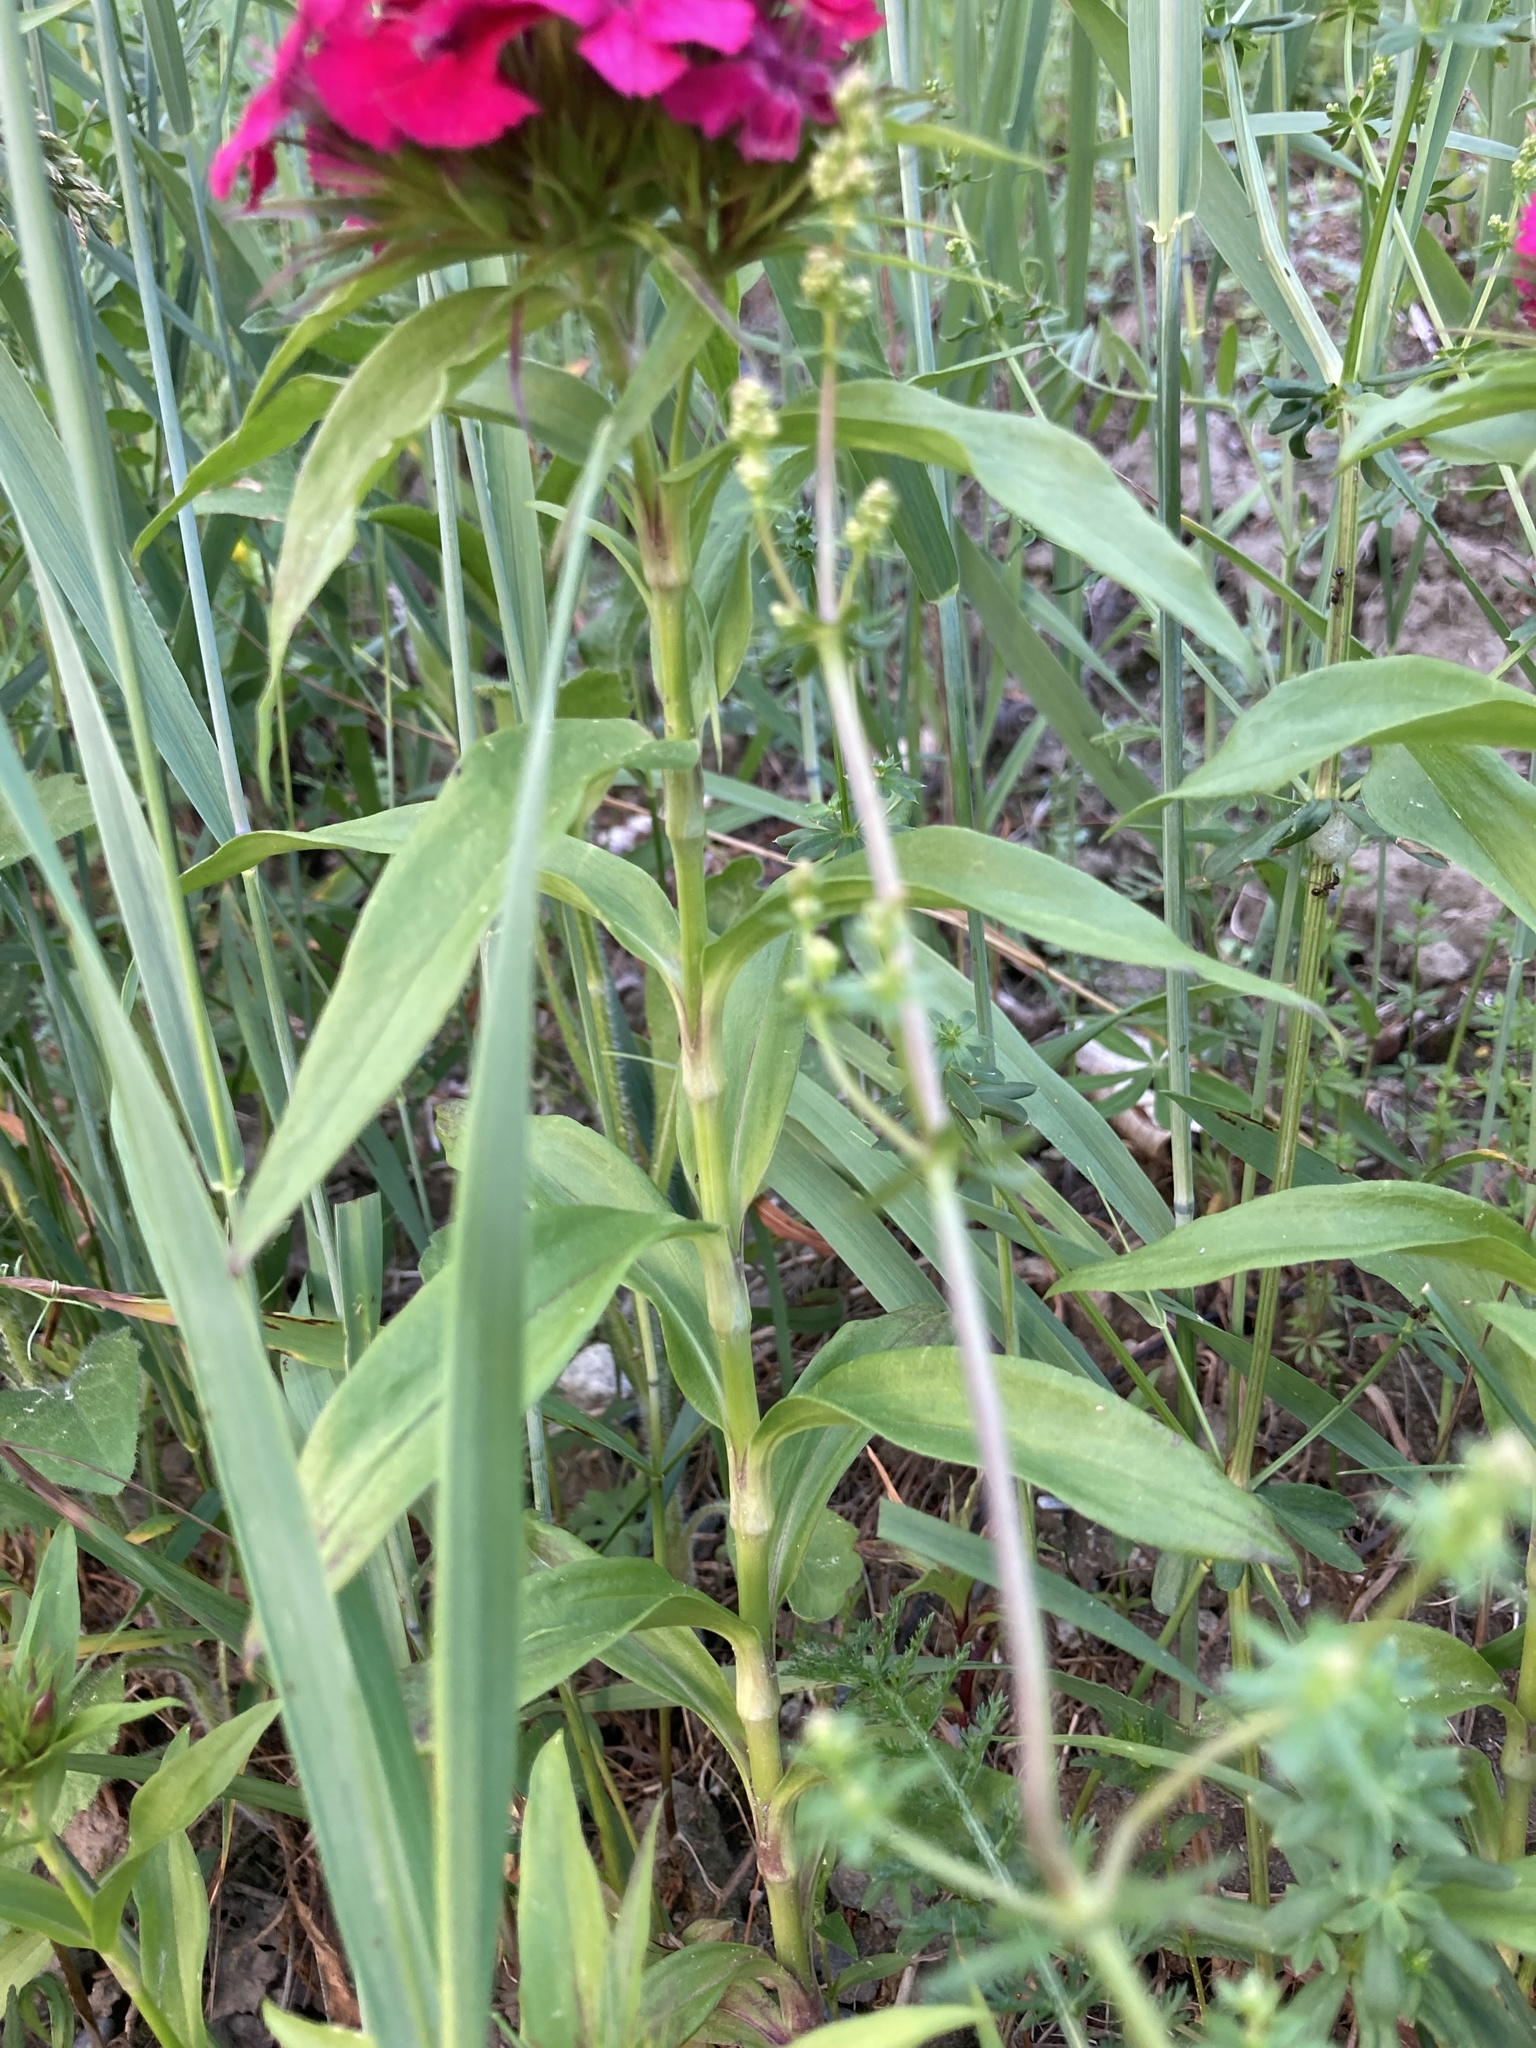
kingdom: Plantae
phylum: Tracheophyta
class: Magnoliopsida
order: Caryophyllales
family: Caryophyllaceae
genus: Dianthus
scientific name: Dianthus barbatus
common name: Sweet-william
